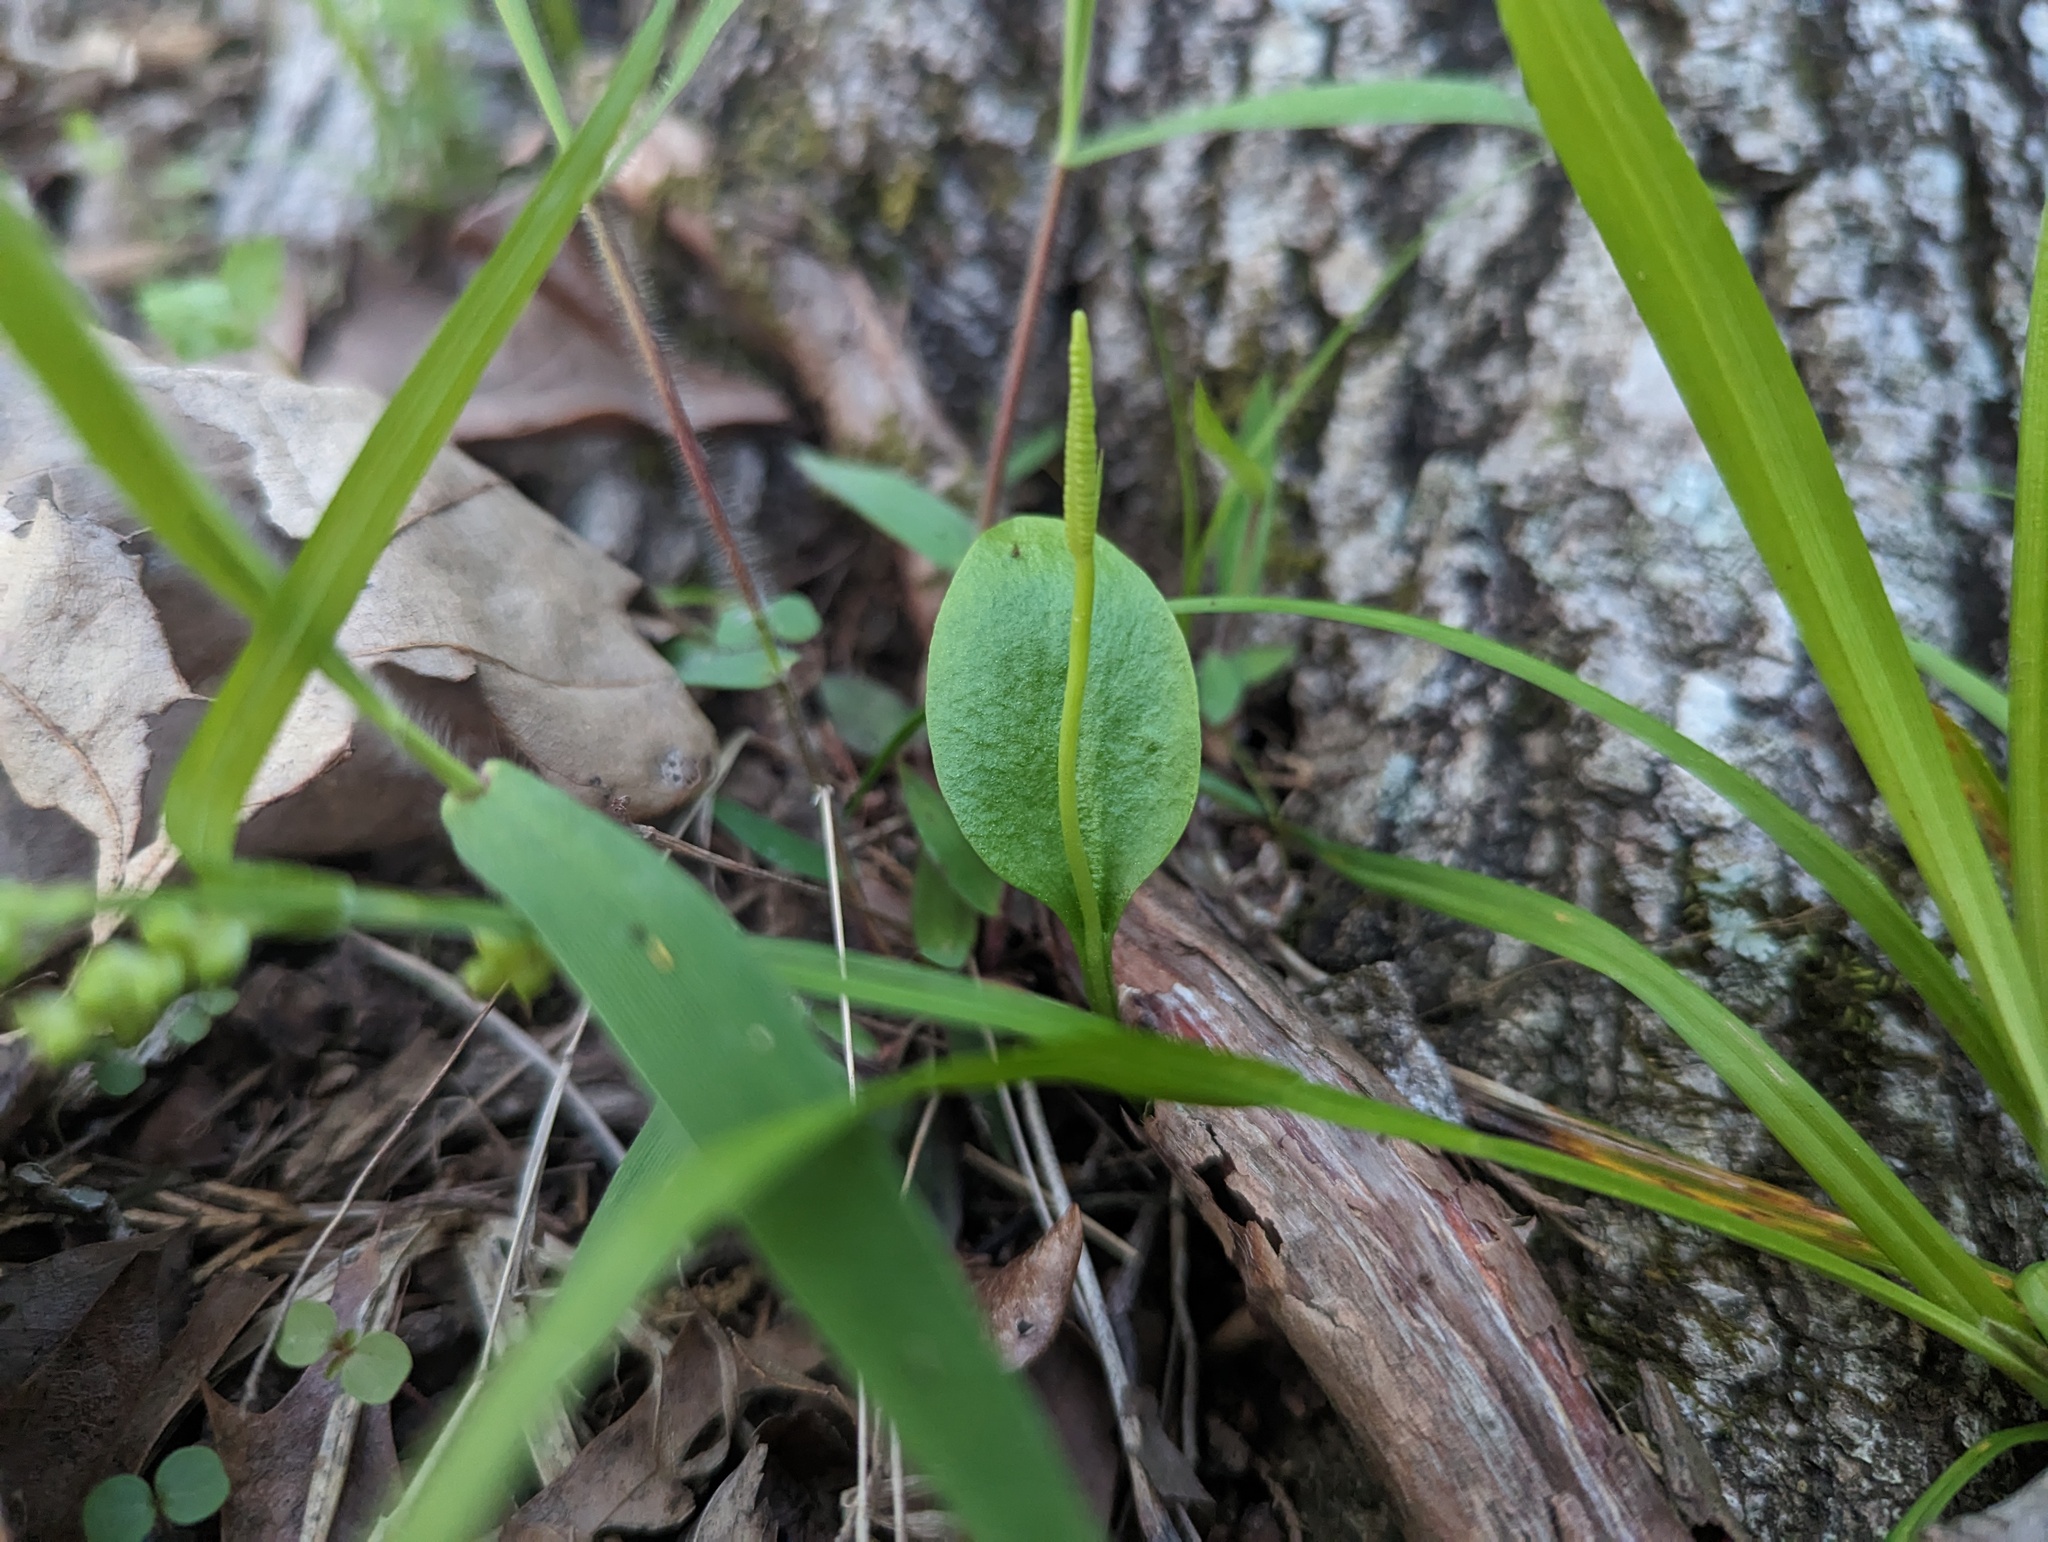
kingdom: Plantae
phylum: Tracheophyta
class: Polypodiopsida
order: Ophioglossales
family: Ophioglossaceae
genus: Ophioglossum
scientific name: Ophioglossum vulgatum
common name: Adder's-tongue
